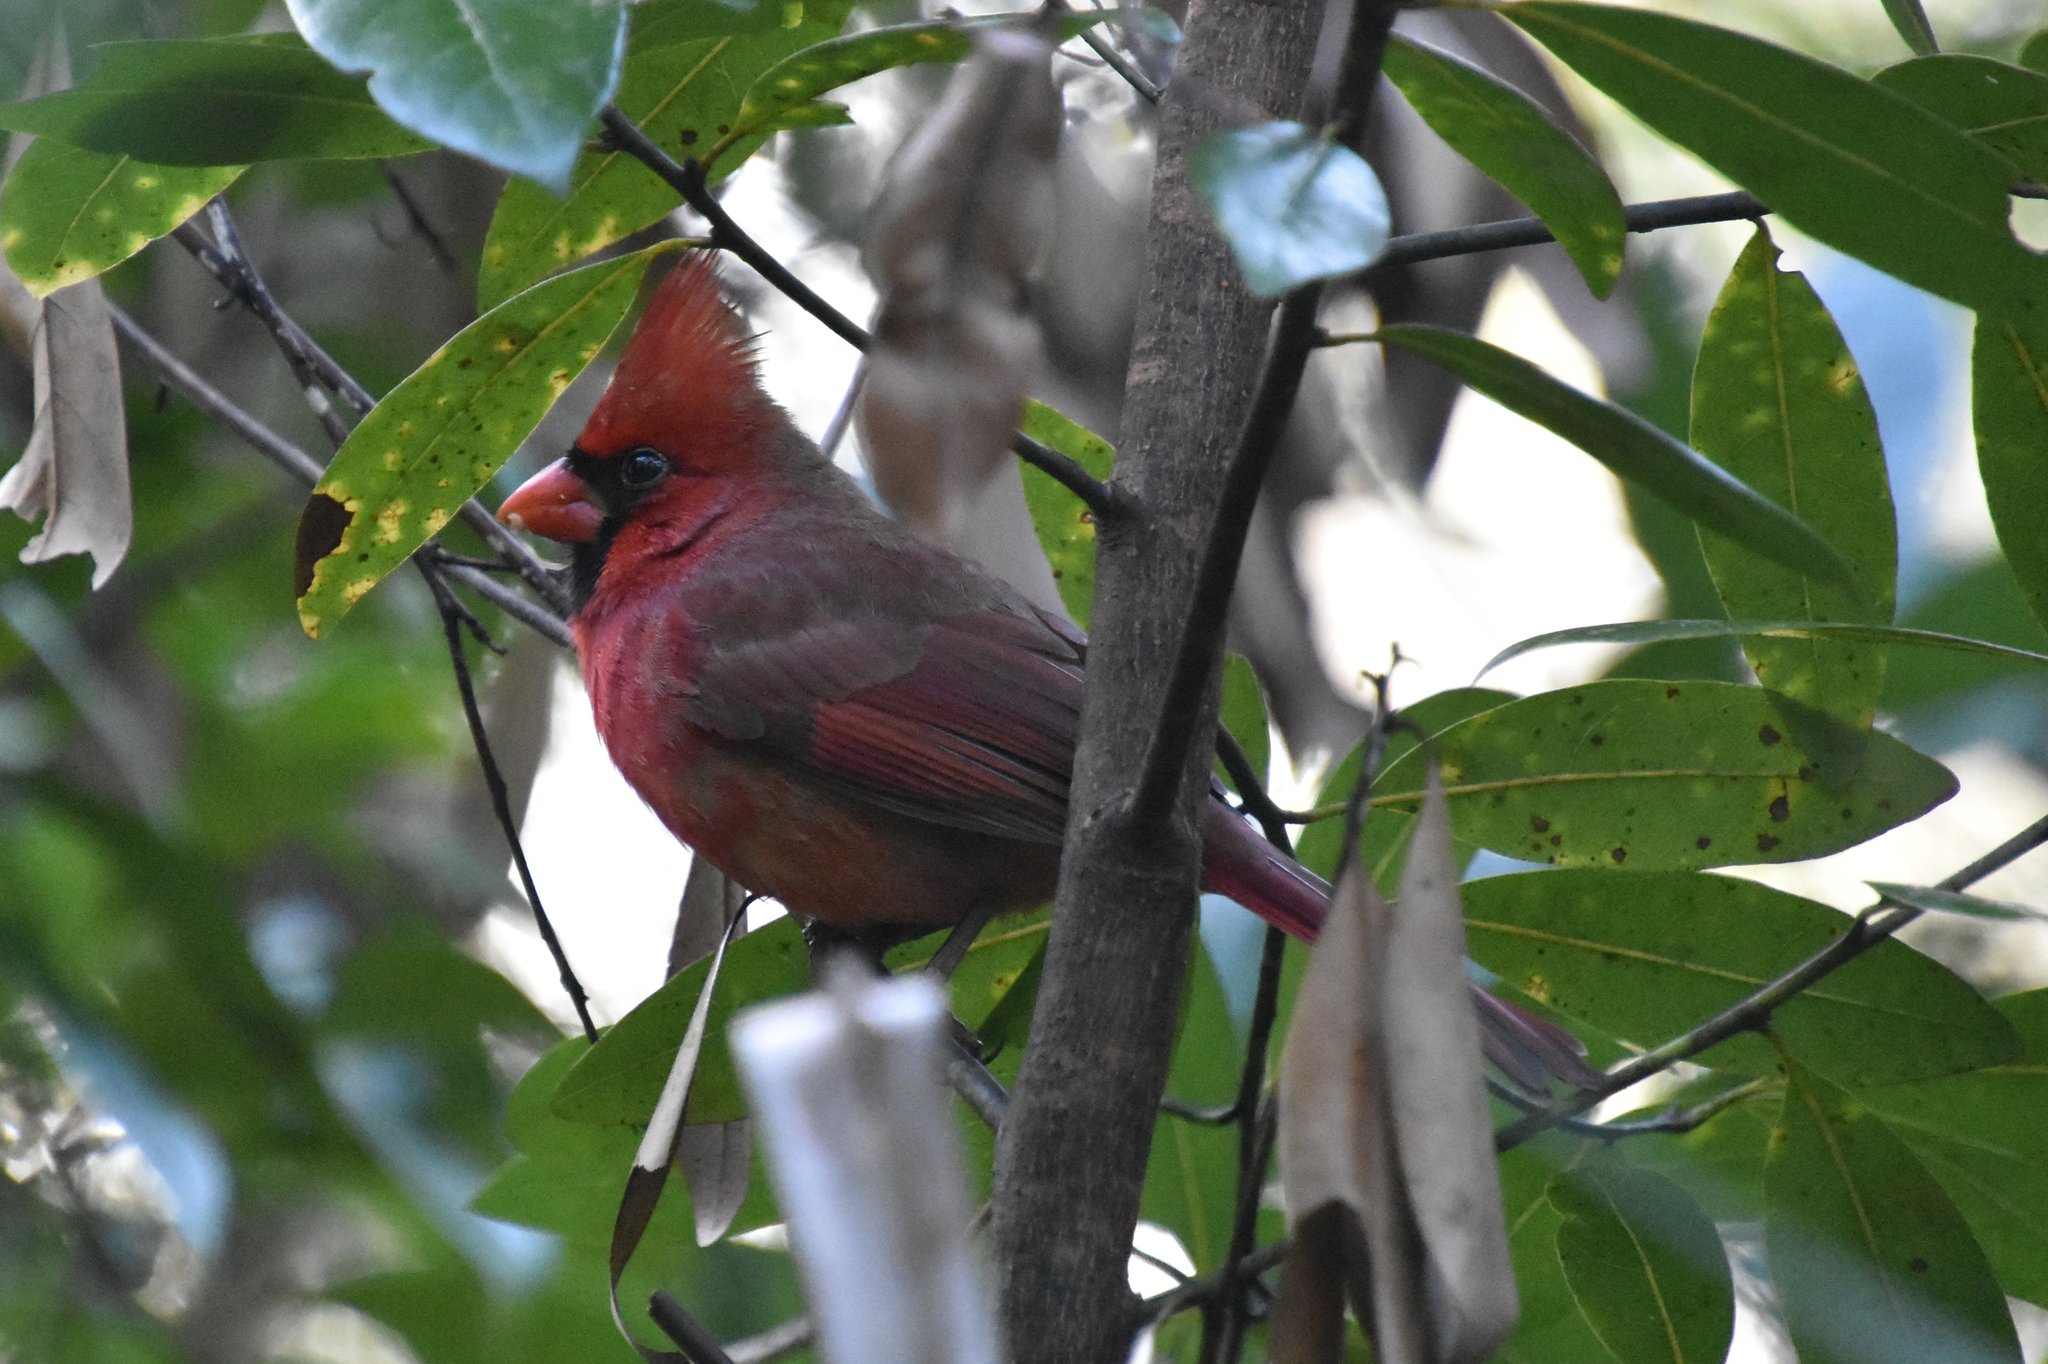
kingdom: Animalia
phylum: Chordata
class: Aves
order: Passeriformes
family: Cardinalidae
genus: Cardinalis
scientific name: Cardinalis cardinalis
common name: Northern cardinal
